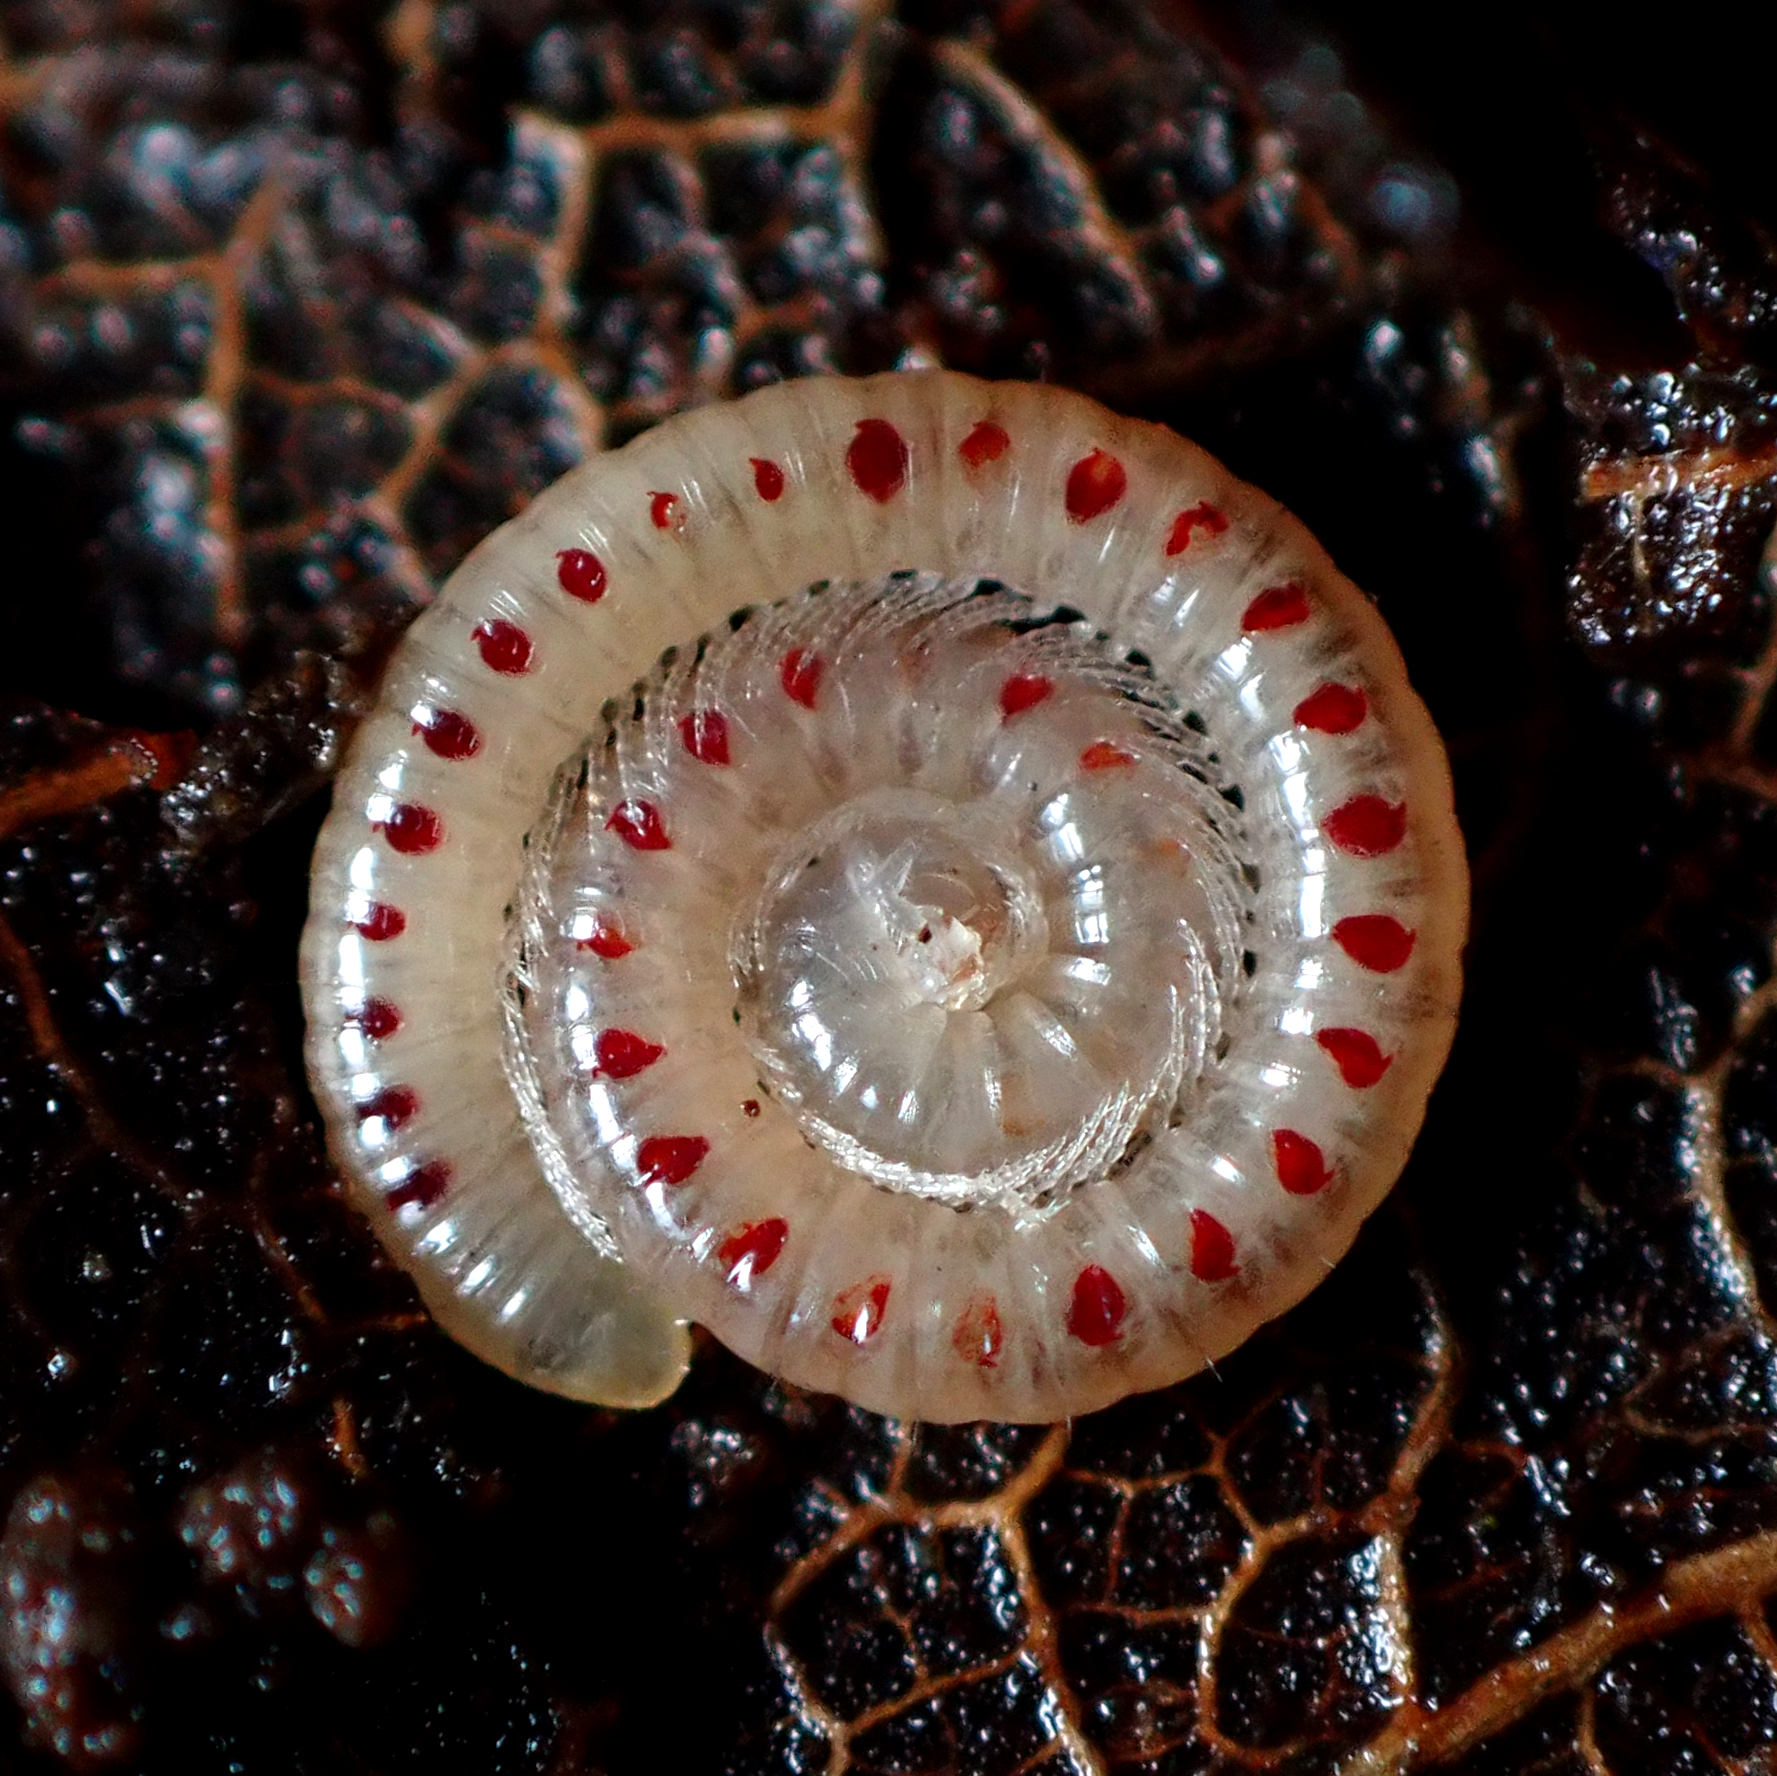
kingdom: Animalia
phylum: Arthropoda
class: Diplopoda
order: Julida
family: Blaniulidae
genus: Blaniulus
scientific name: Blaniulus guttulatus
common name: Spotted snake millipede
